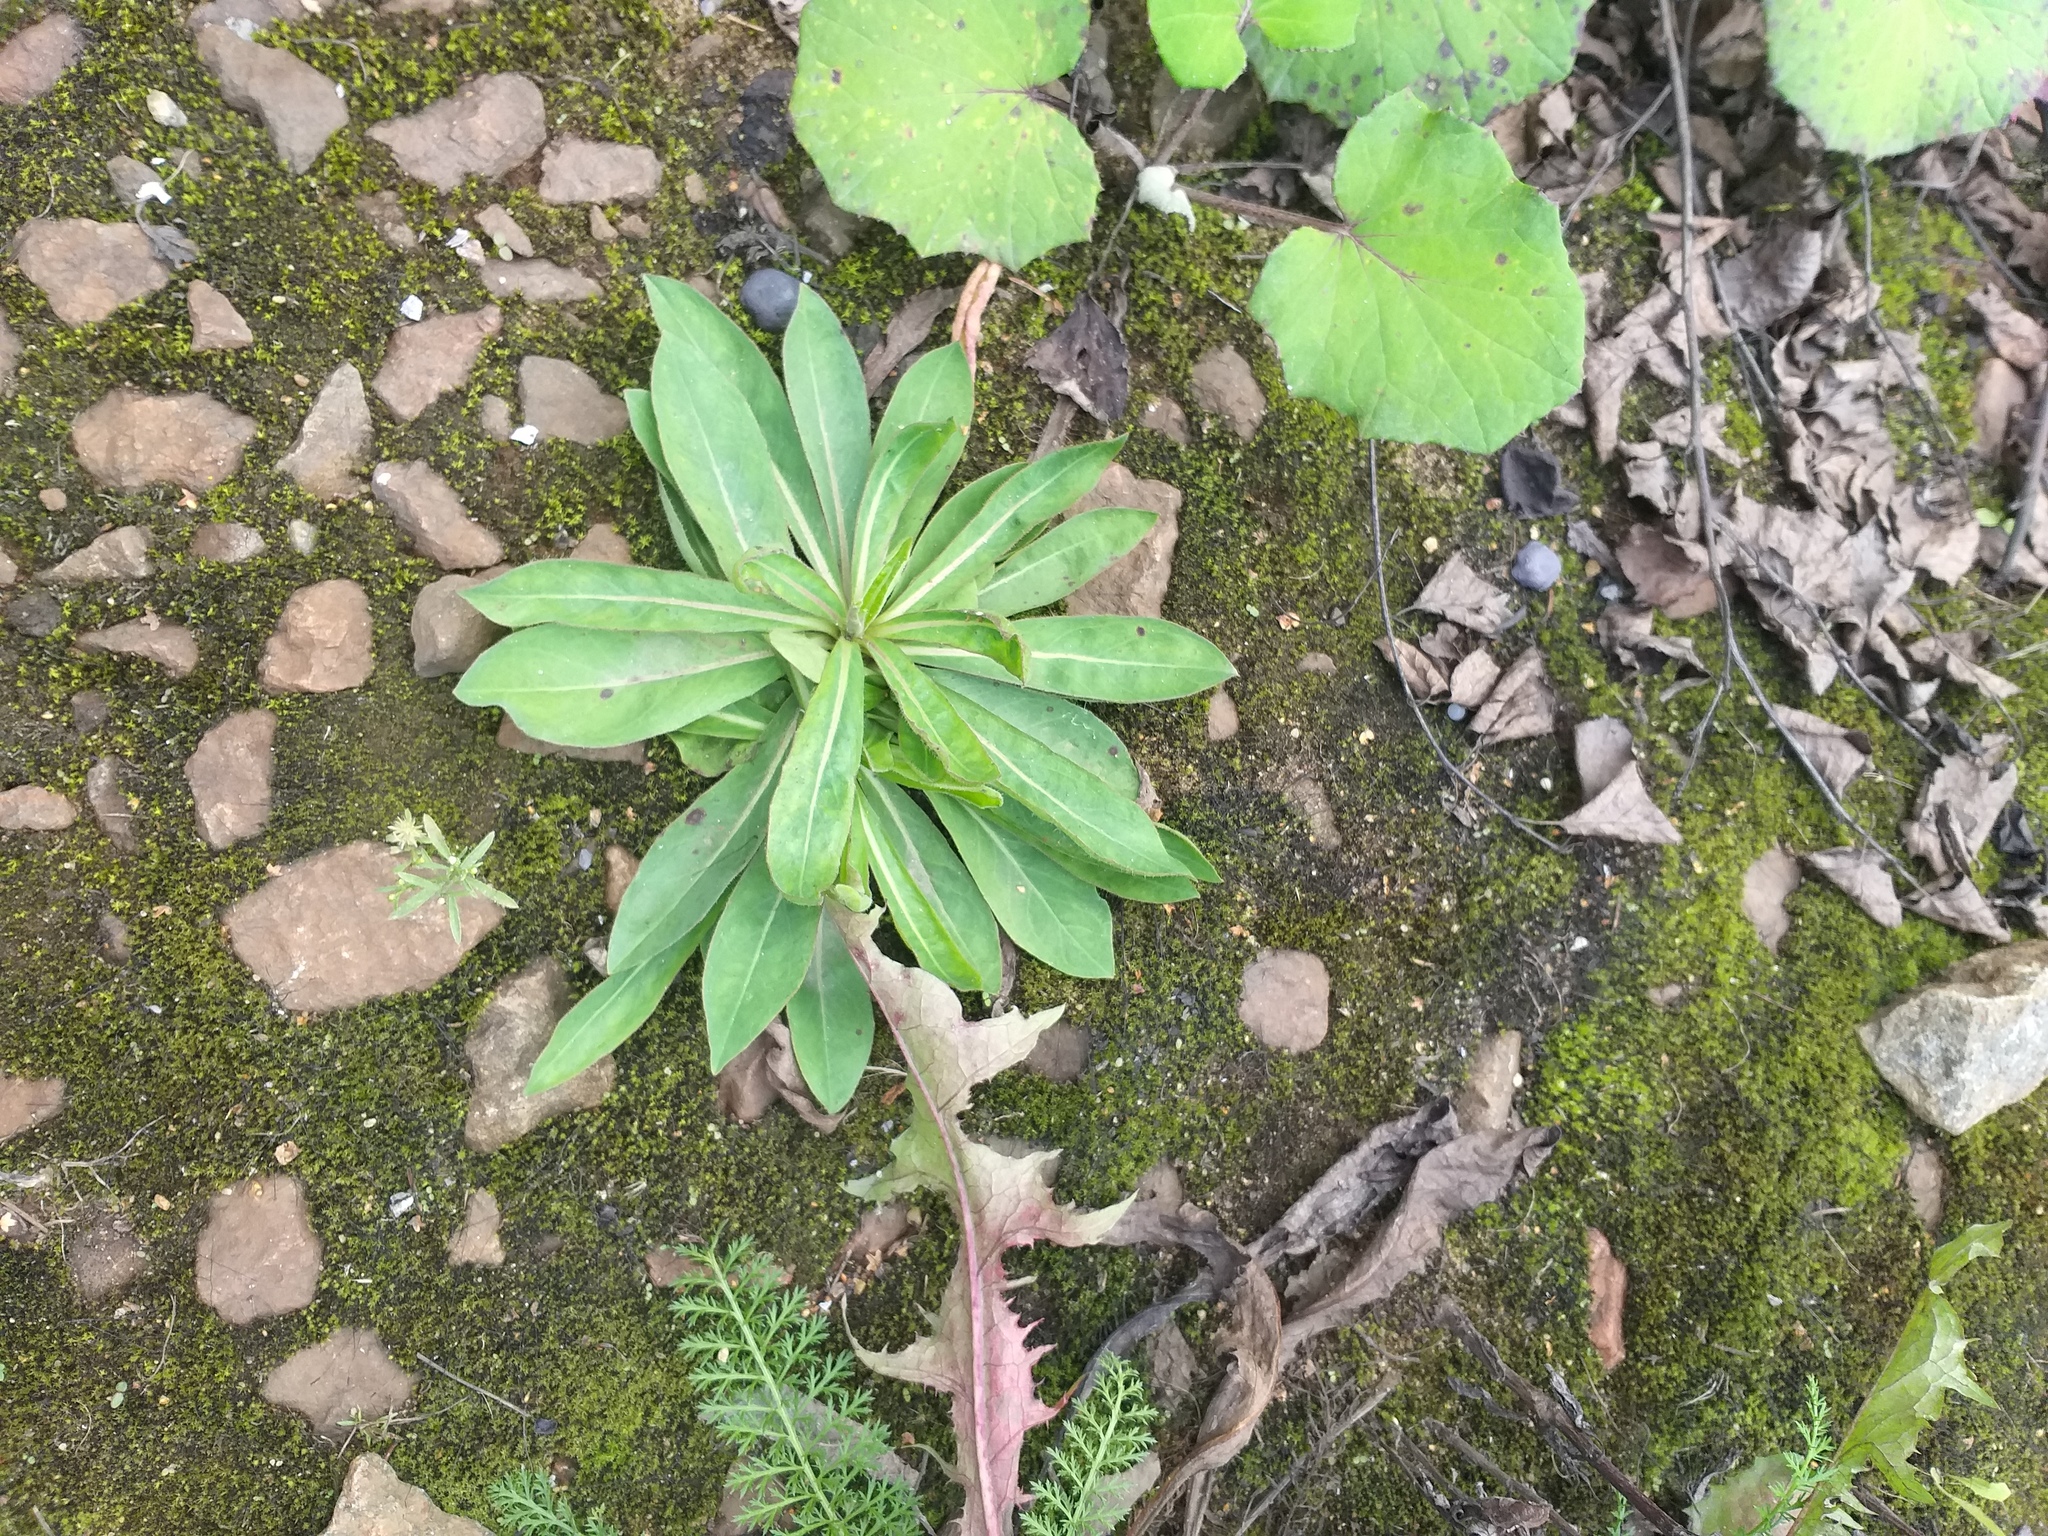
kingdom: Plantae
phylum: Tracheophyta
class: Magnoliopsida
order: Asterales
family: Asteraceae
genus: Pilosella
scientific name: Pilosella
